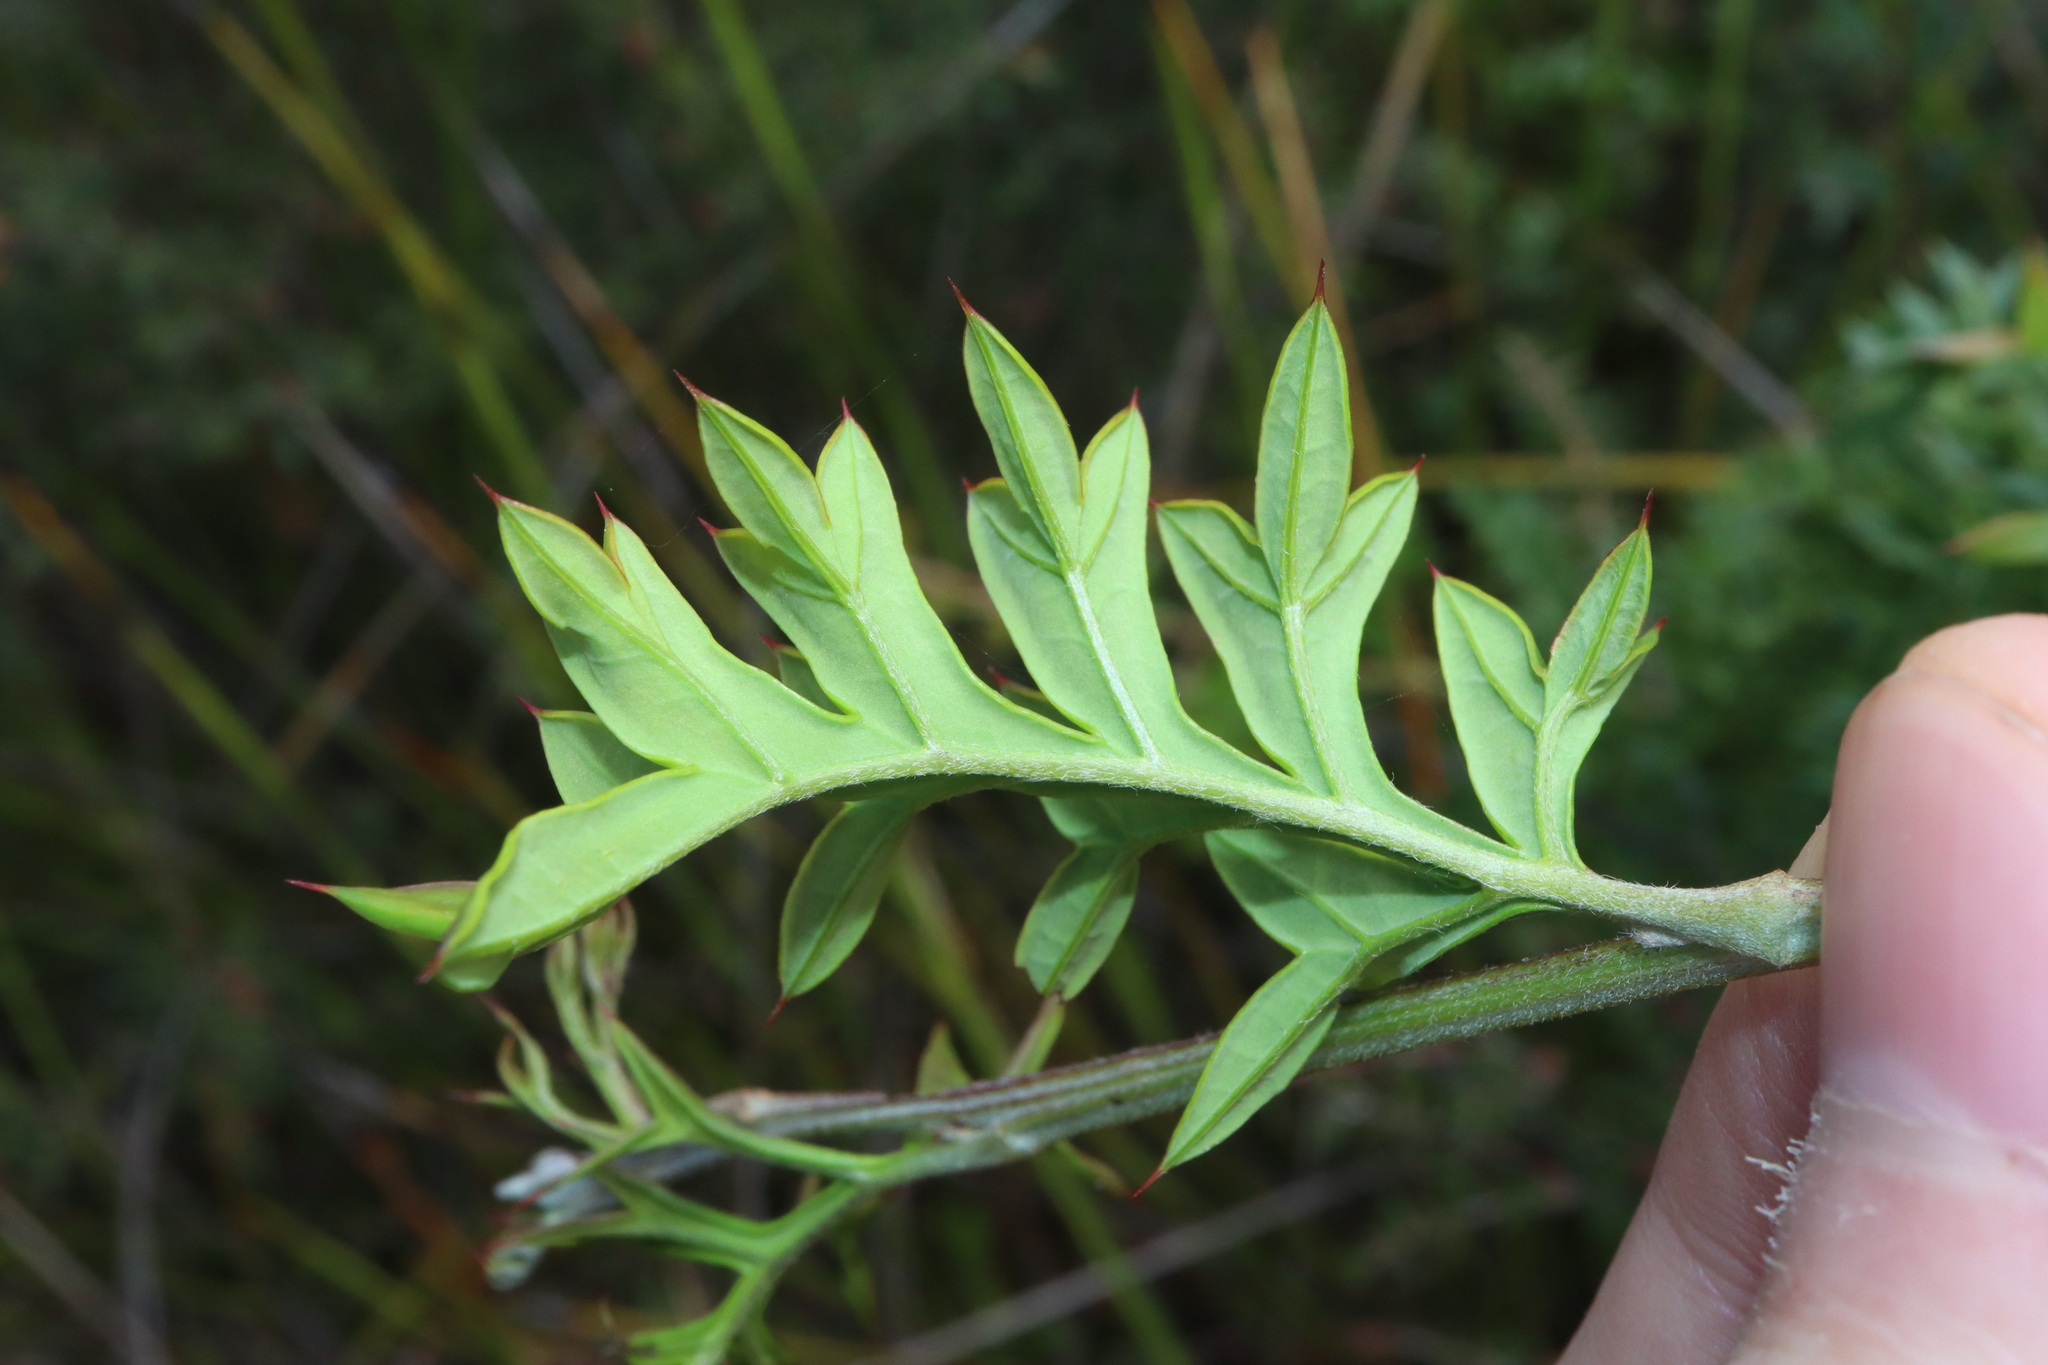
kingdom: Plantae
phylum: Tracheophyta
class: Magnoliopsida
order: Proteales
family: Proteaceae
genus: Grevillea
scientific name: Grevillea acanthifolia
